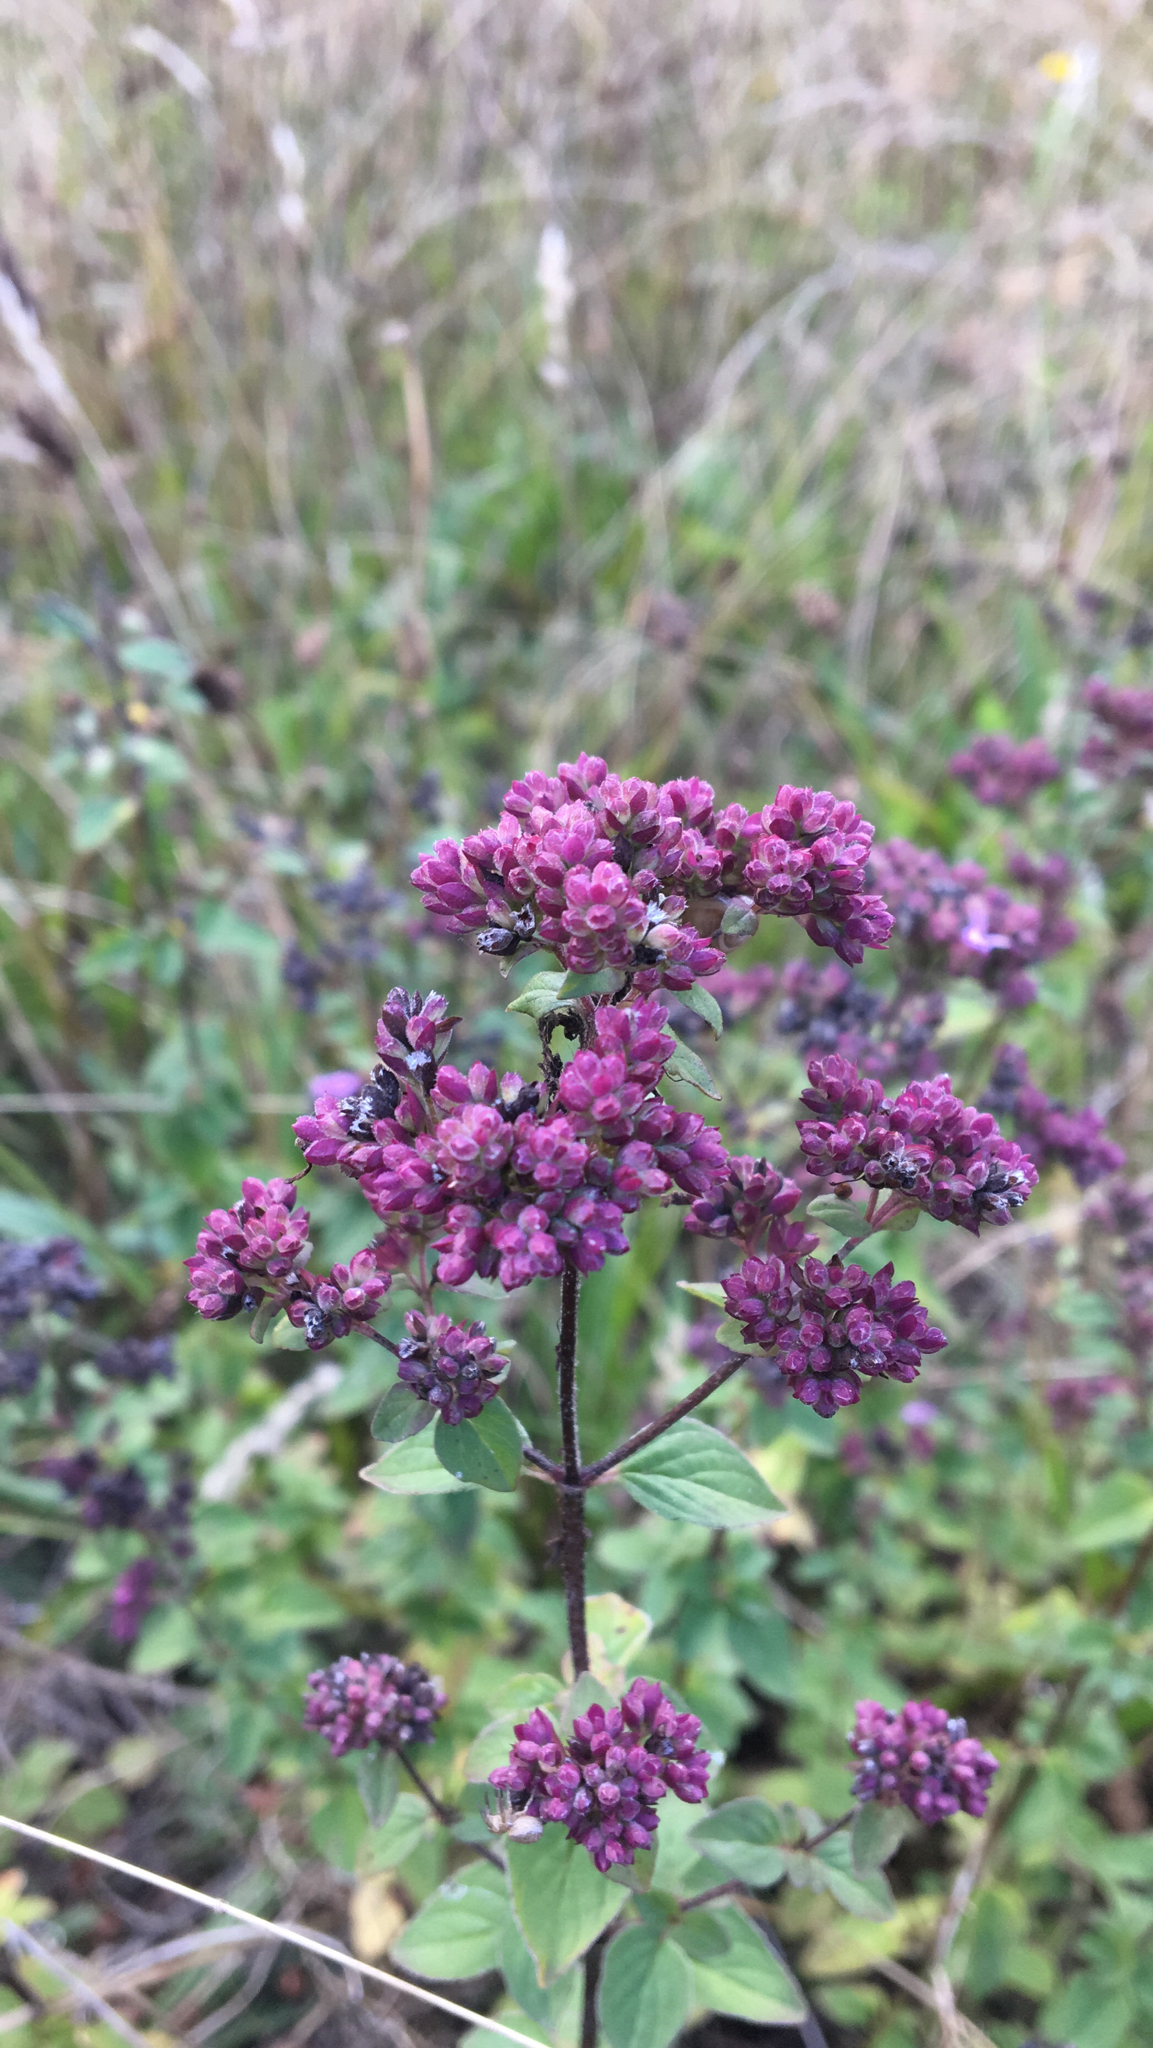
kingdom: Plantae
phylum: Tracheophyta
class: Magnoliopsida
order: Lamiales
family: Lamiaceae
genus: Origanum
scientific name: Origanum vulgare
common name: Wild marjoram
